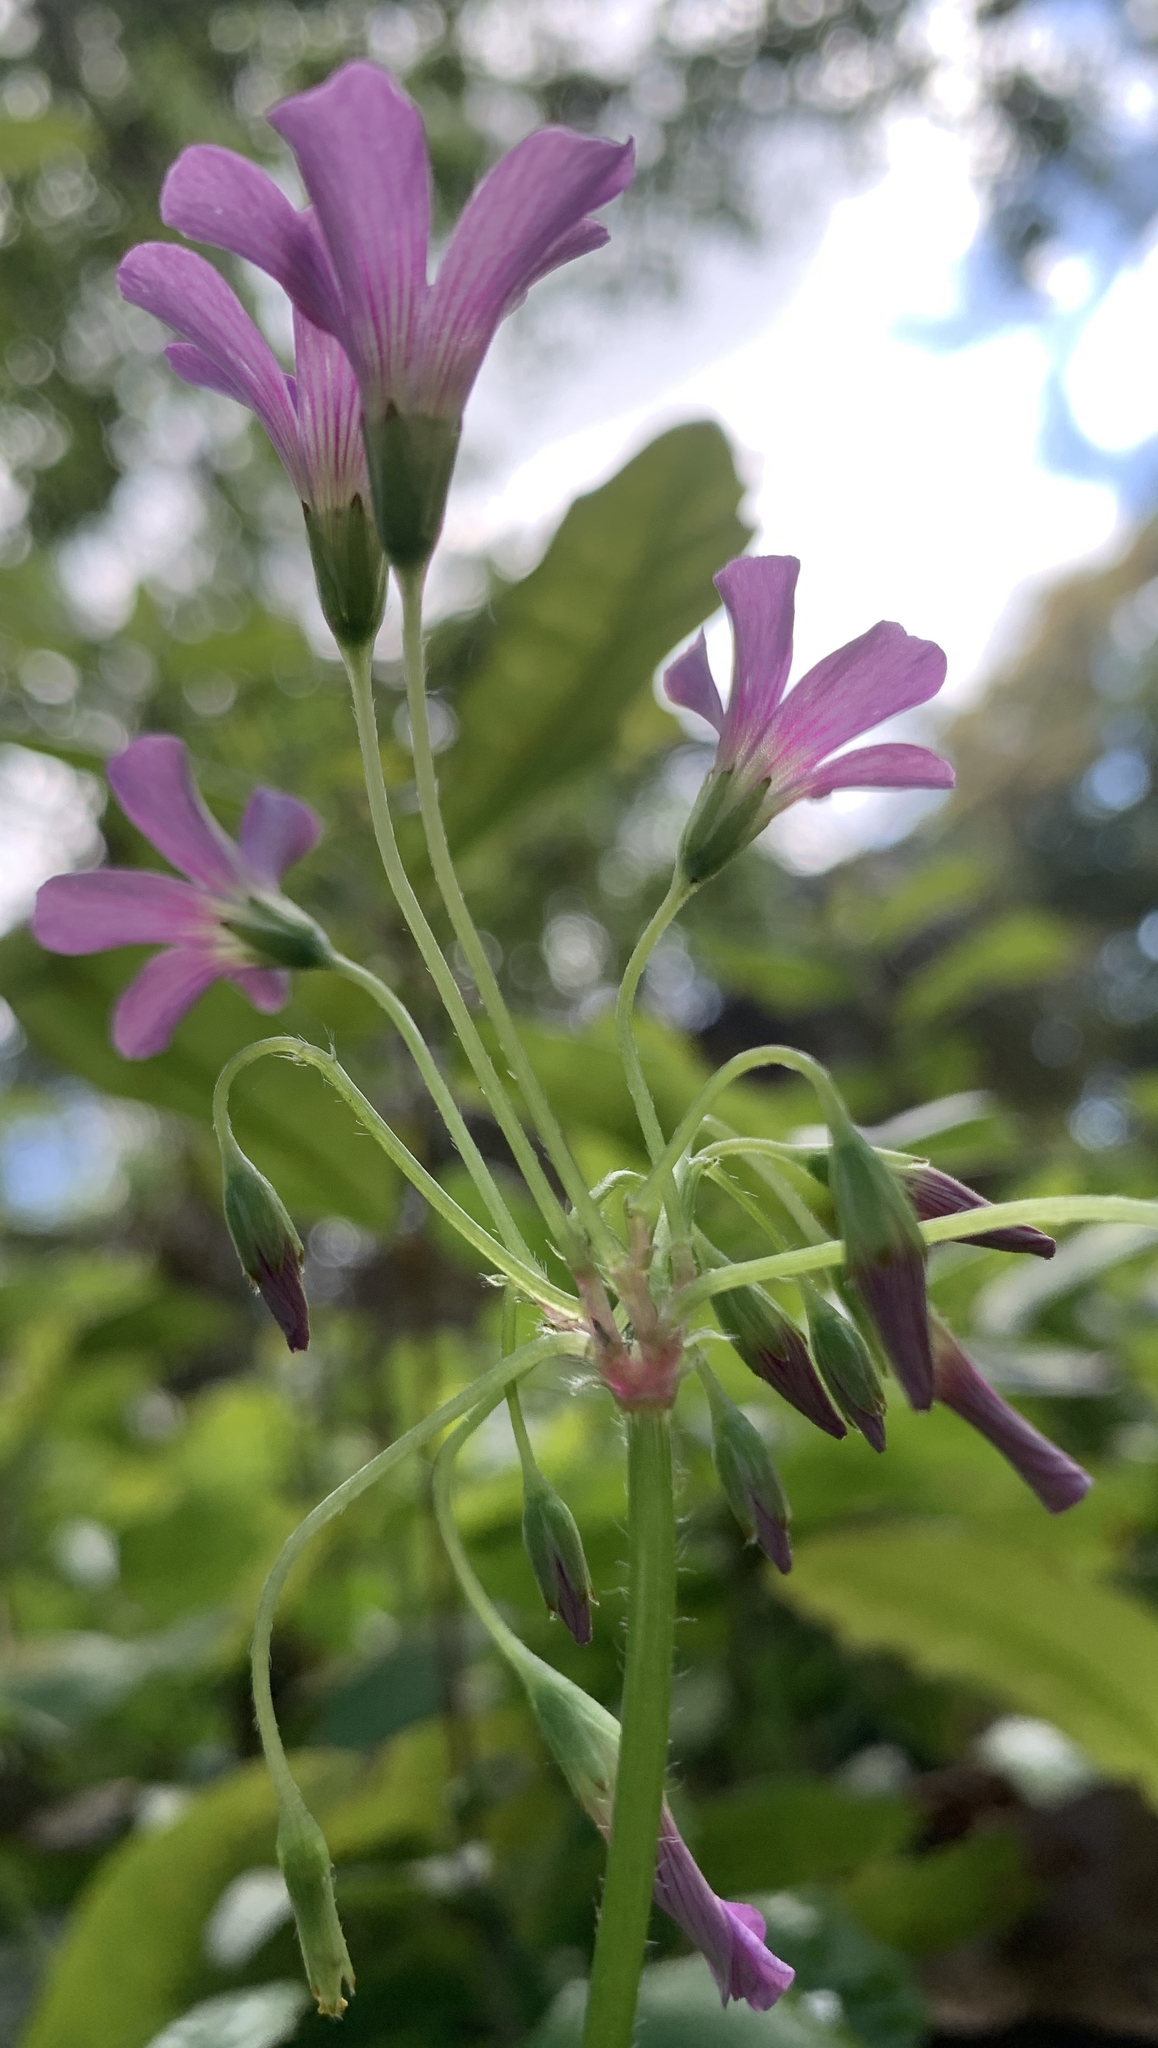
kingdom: Plantae
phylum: Tracheophyta
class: Magnoliopsida
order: Oxalidales
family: Oxalidaceae
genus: Oxalis
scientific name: Oxalis debilis
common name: Large-flowered pink-sorrel
